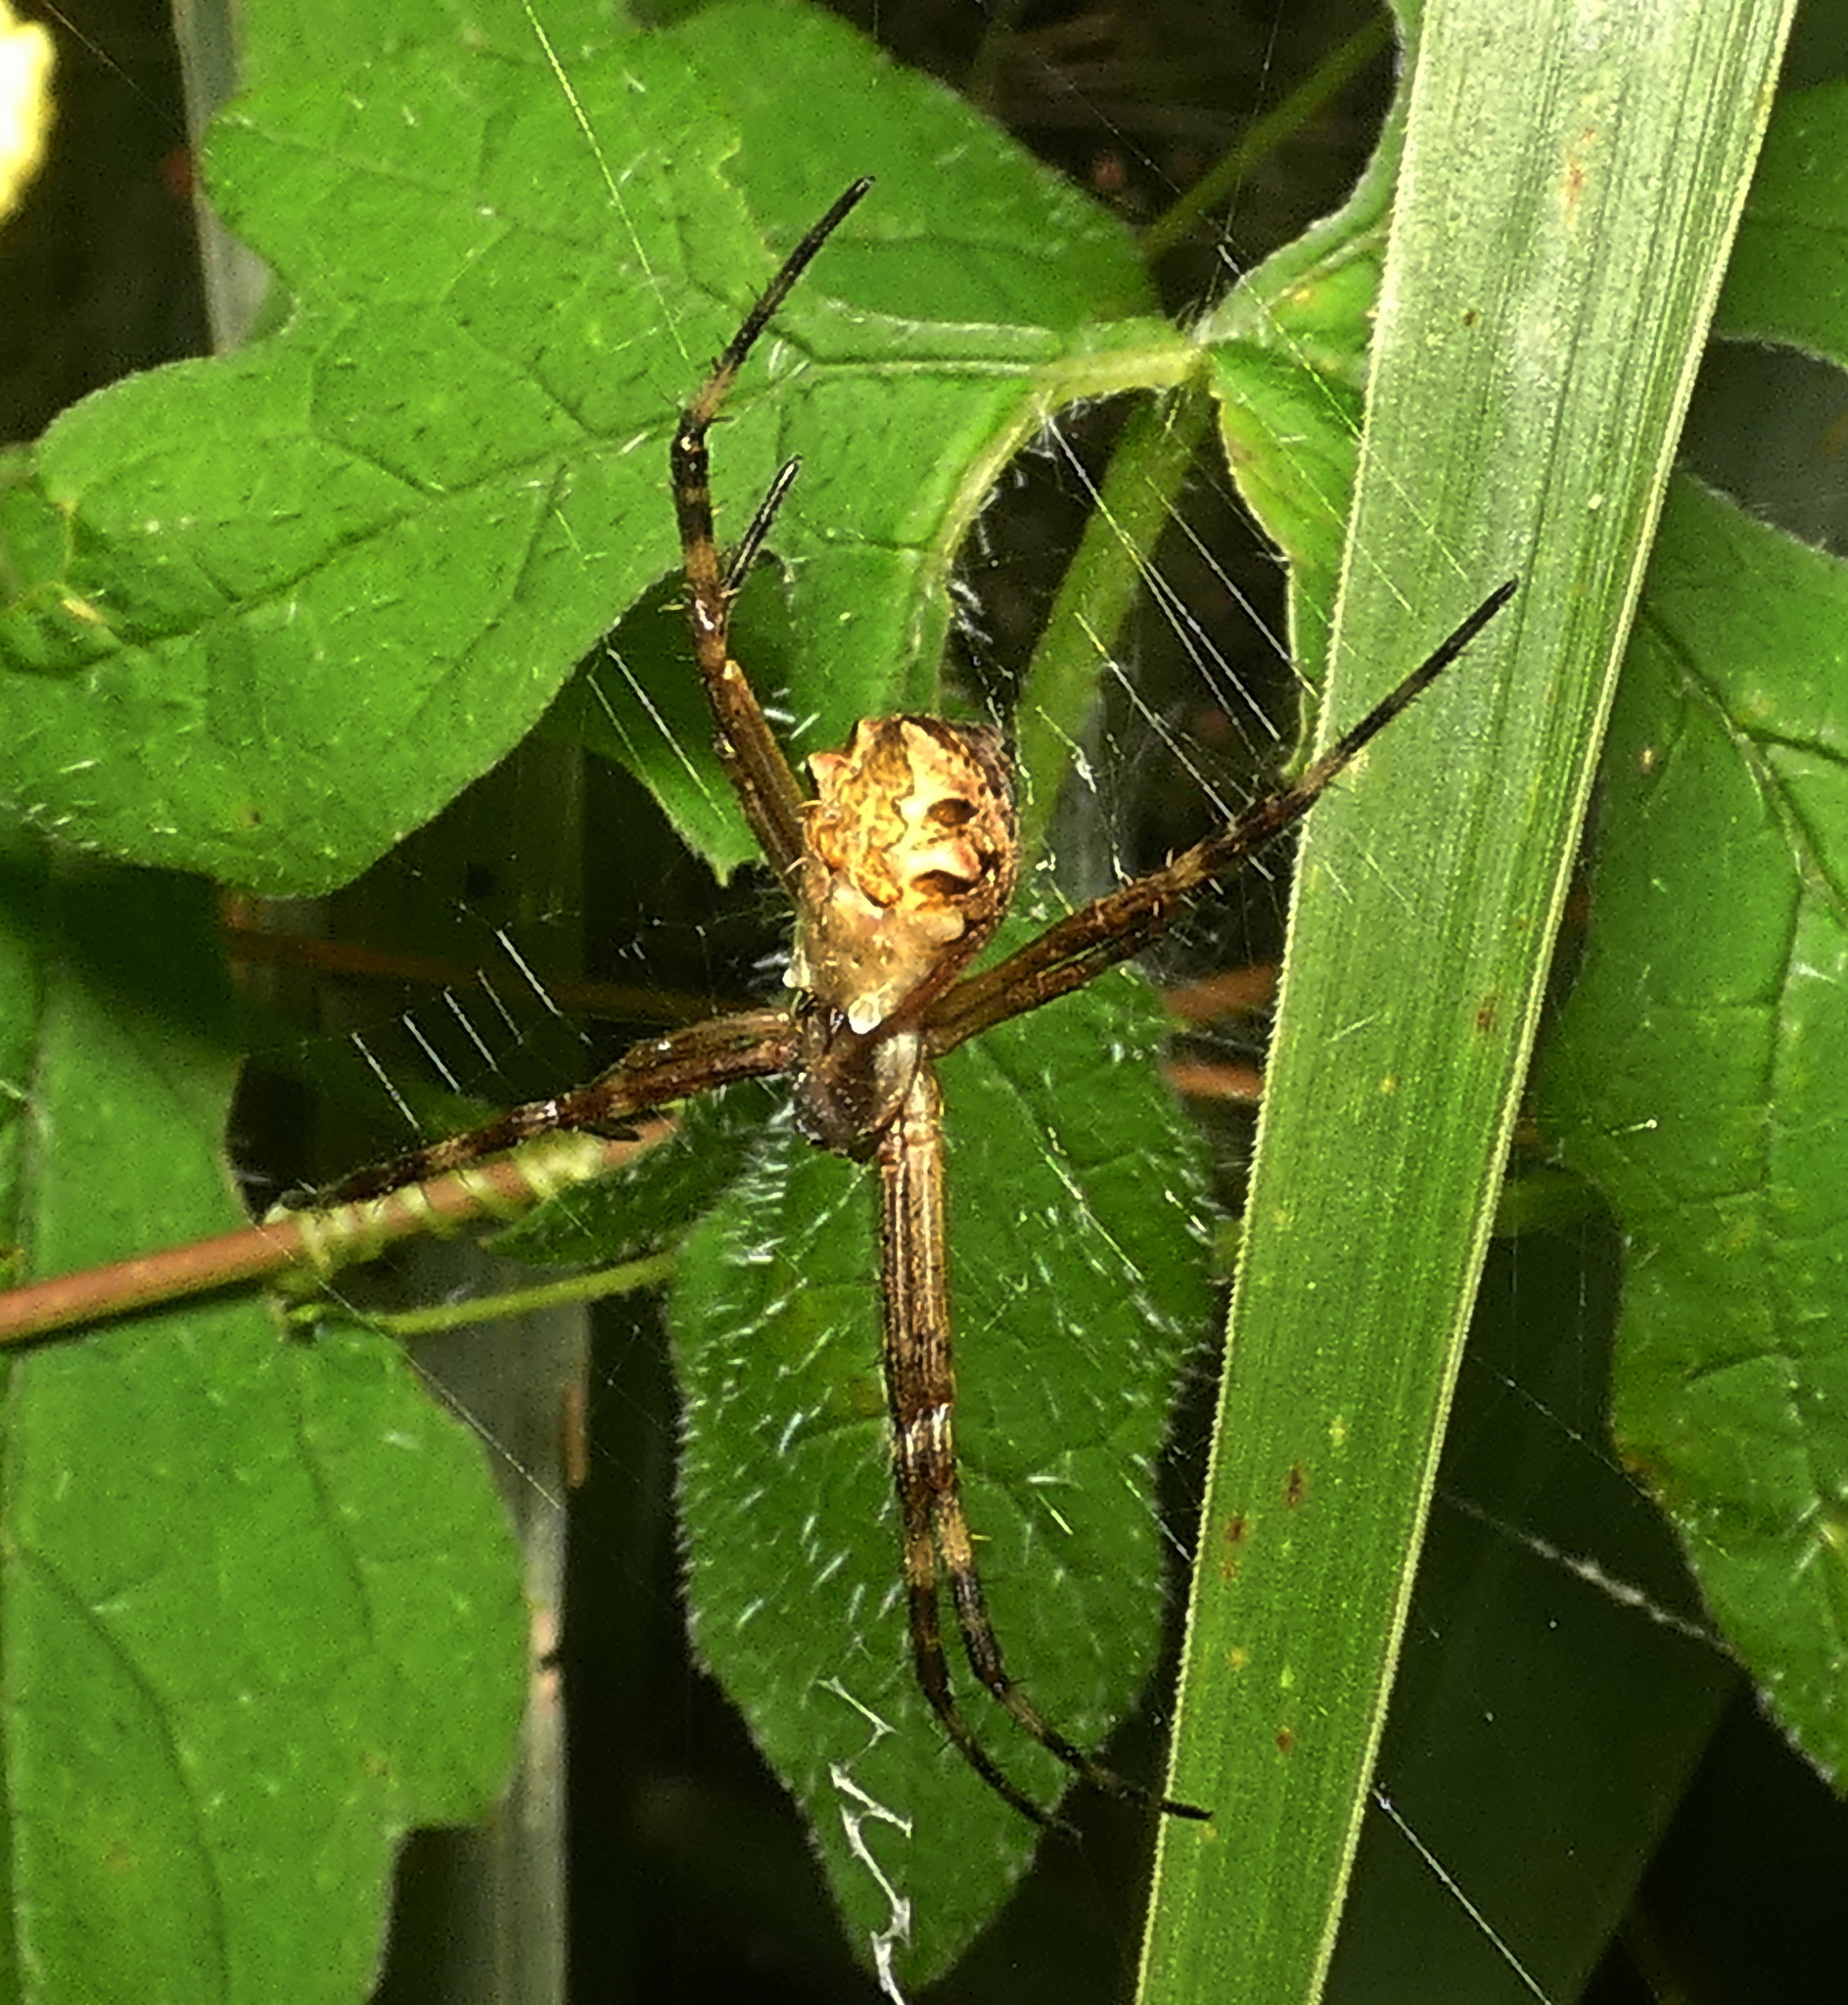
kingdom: Animalia
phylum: Arthropoda
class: Arachnida
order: Araneae
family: Araneidae
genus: Argiope
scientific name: Argiope argentata
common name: Orb weavers
